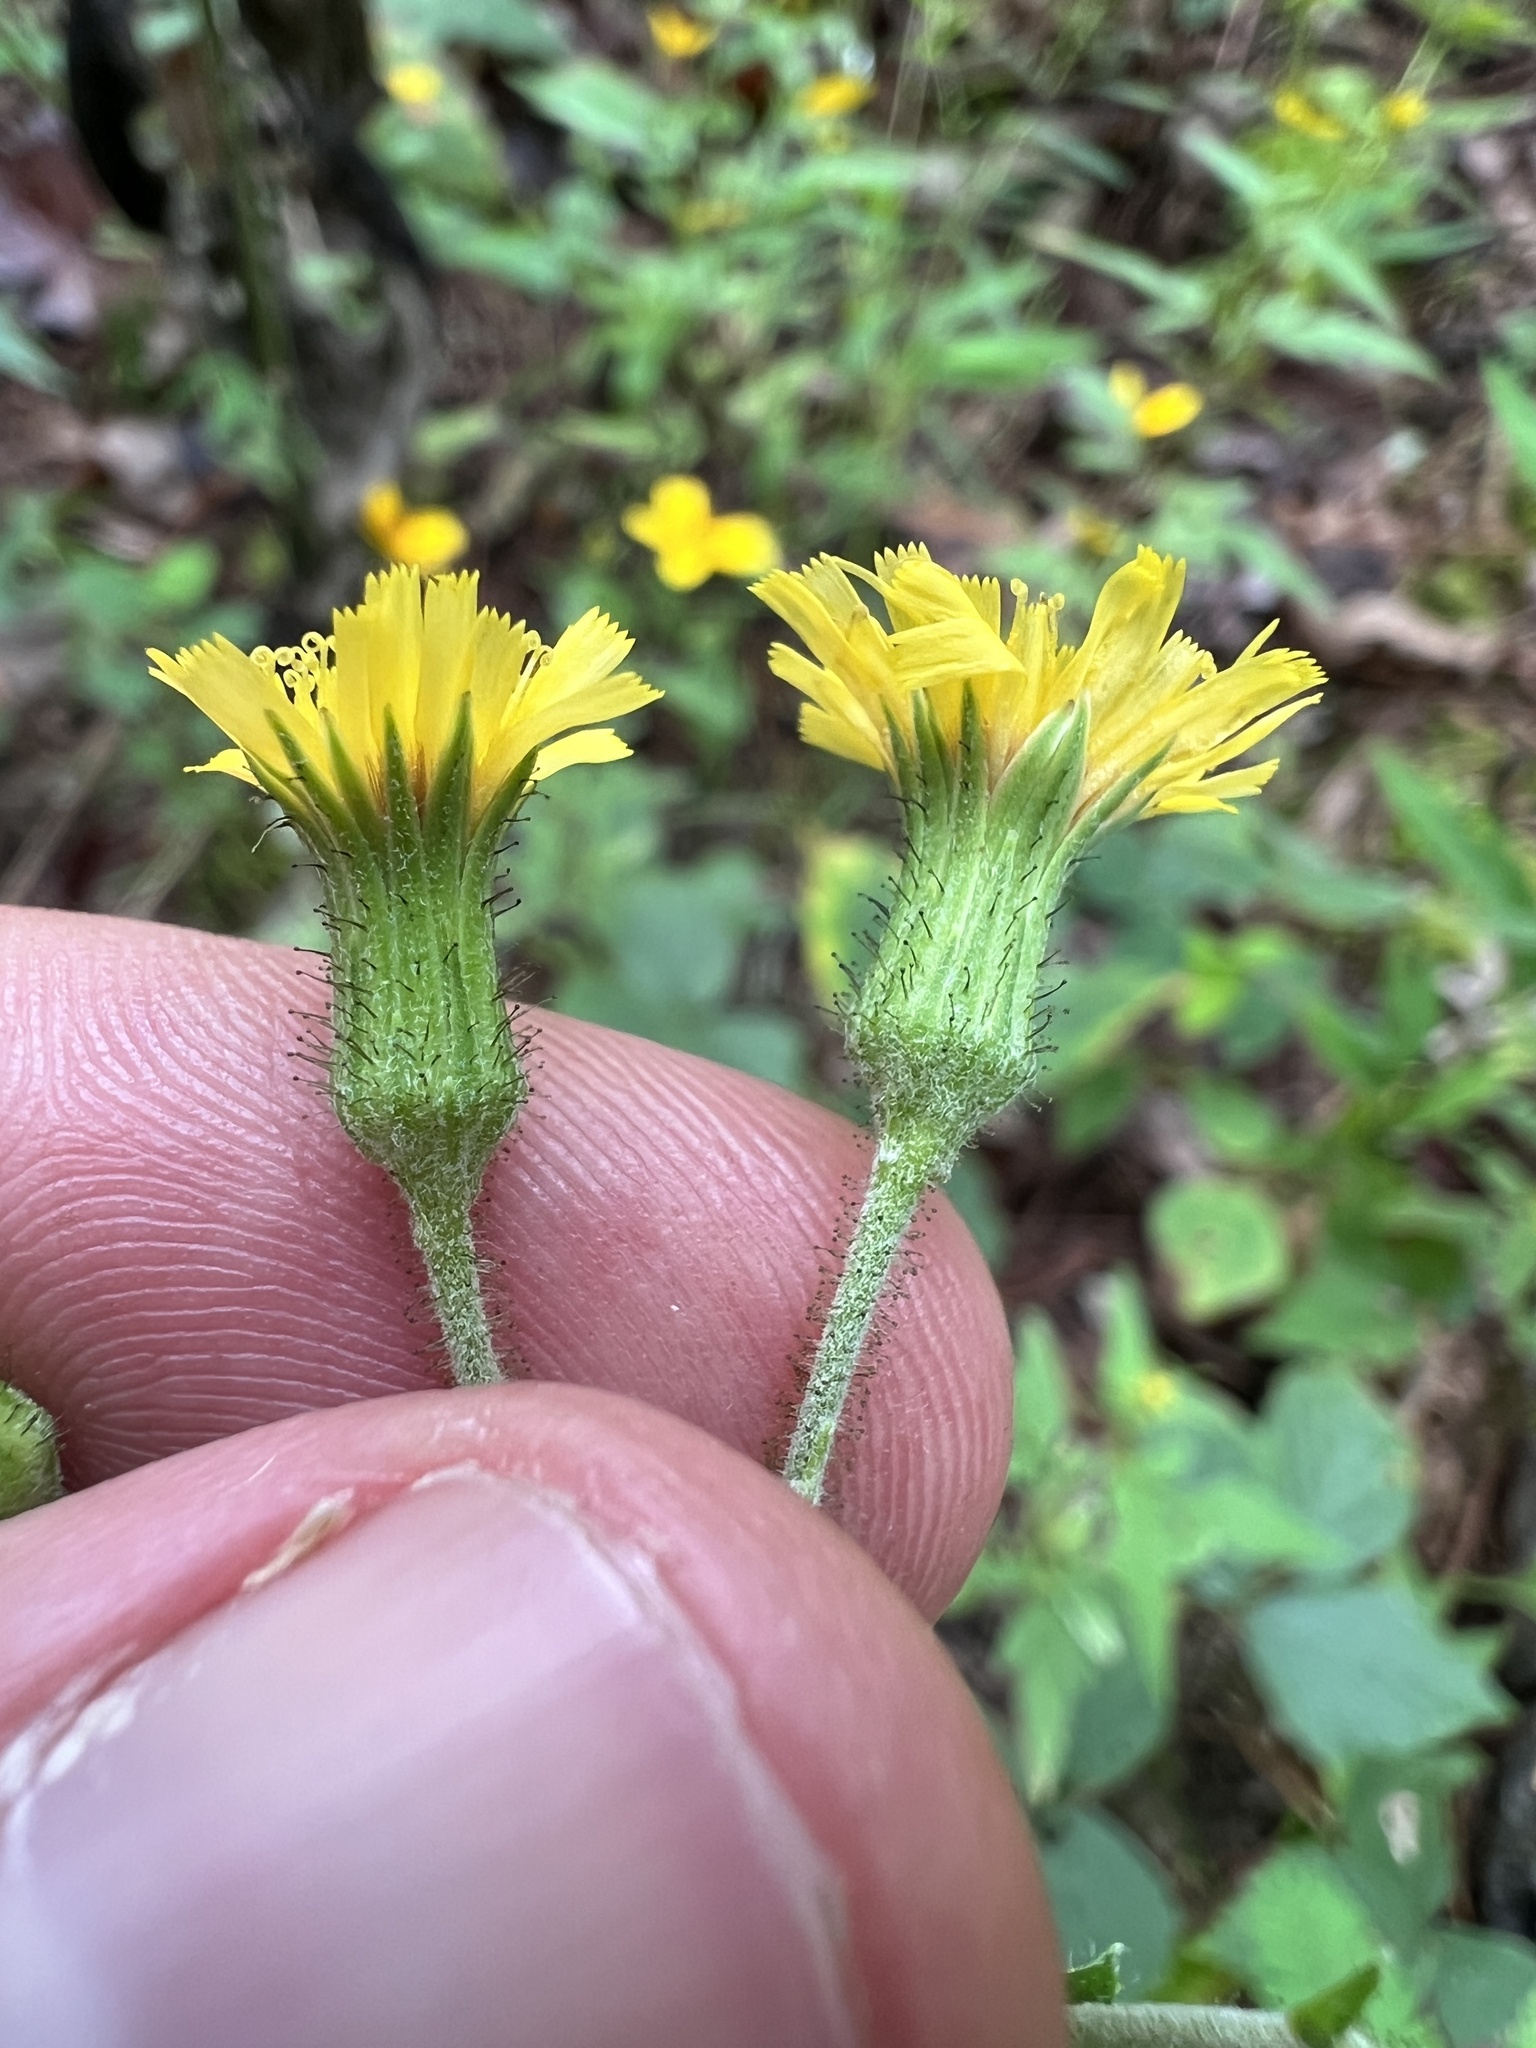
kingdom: Plantae
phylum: Tracheophyta
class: Magnoliopsida
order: Asterales
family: Asteraceae
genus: Hieracium
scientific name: Hieracium scabrum
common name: Rough hawkweed
